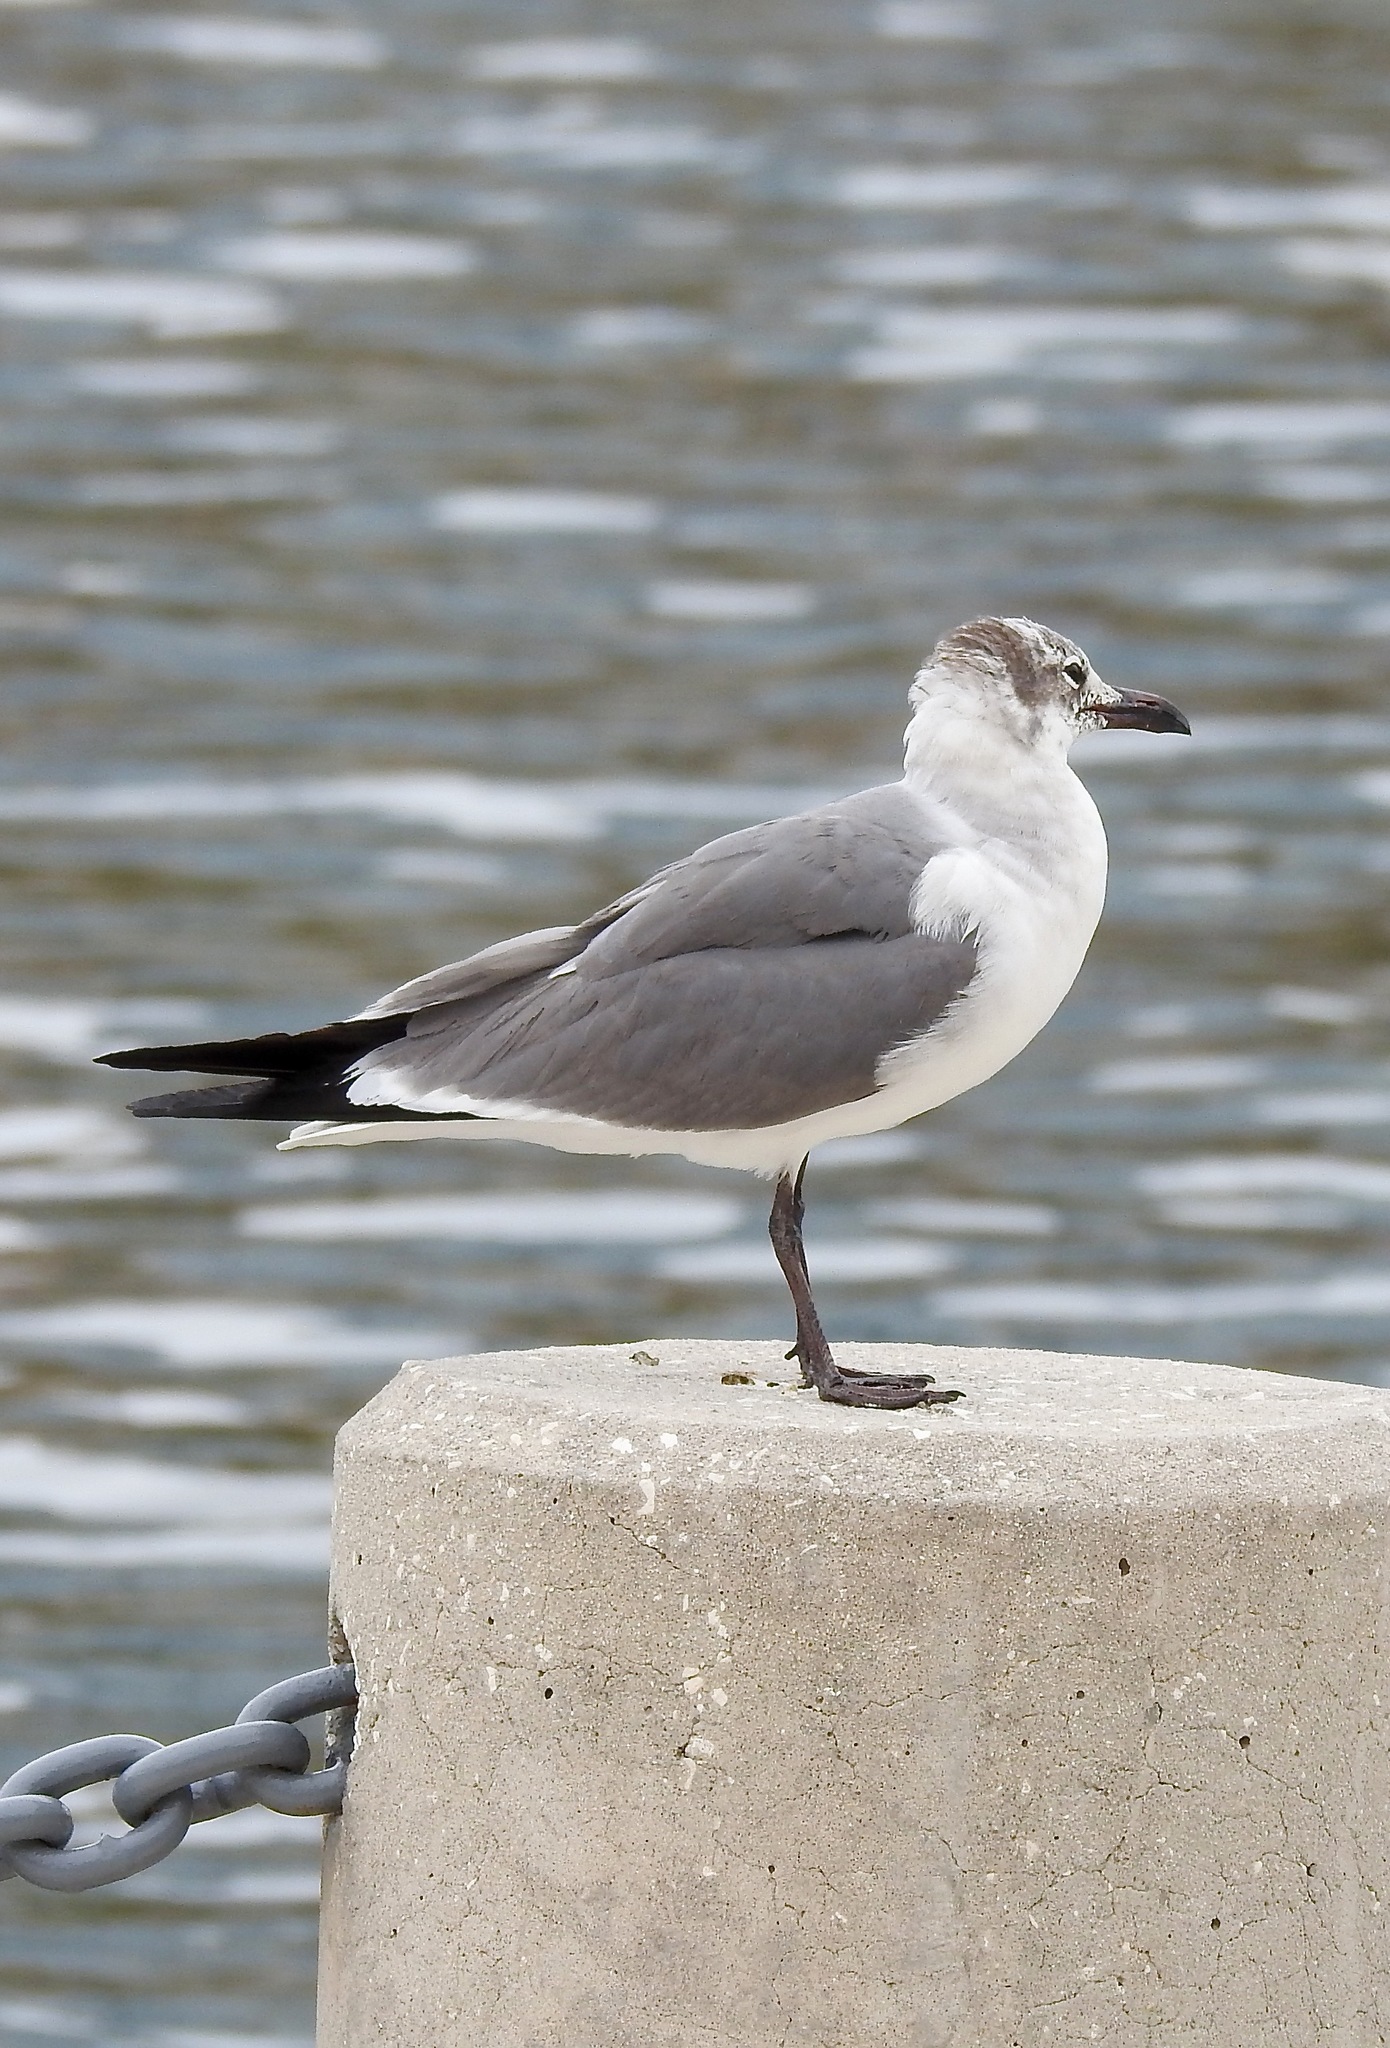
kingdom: Animalia
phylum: Chordata
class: Aves
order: Charadriiformes
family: Laridae
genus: Leucophaeus
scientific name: Leucophaeus atricilla
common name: Laughing gull
